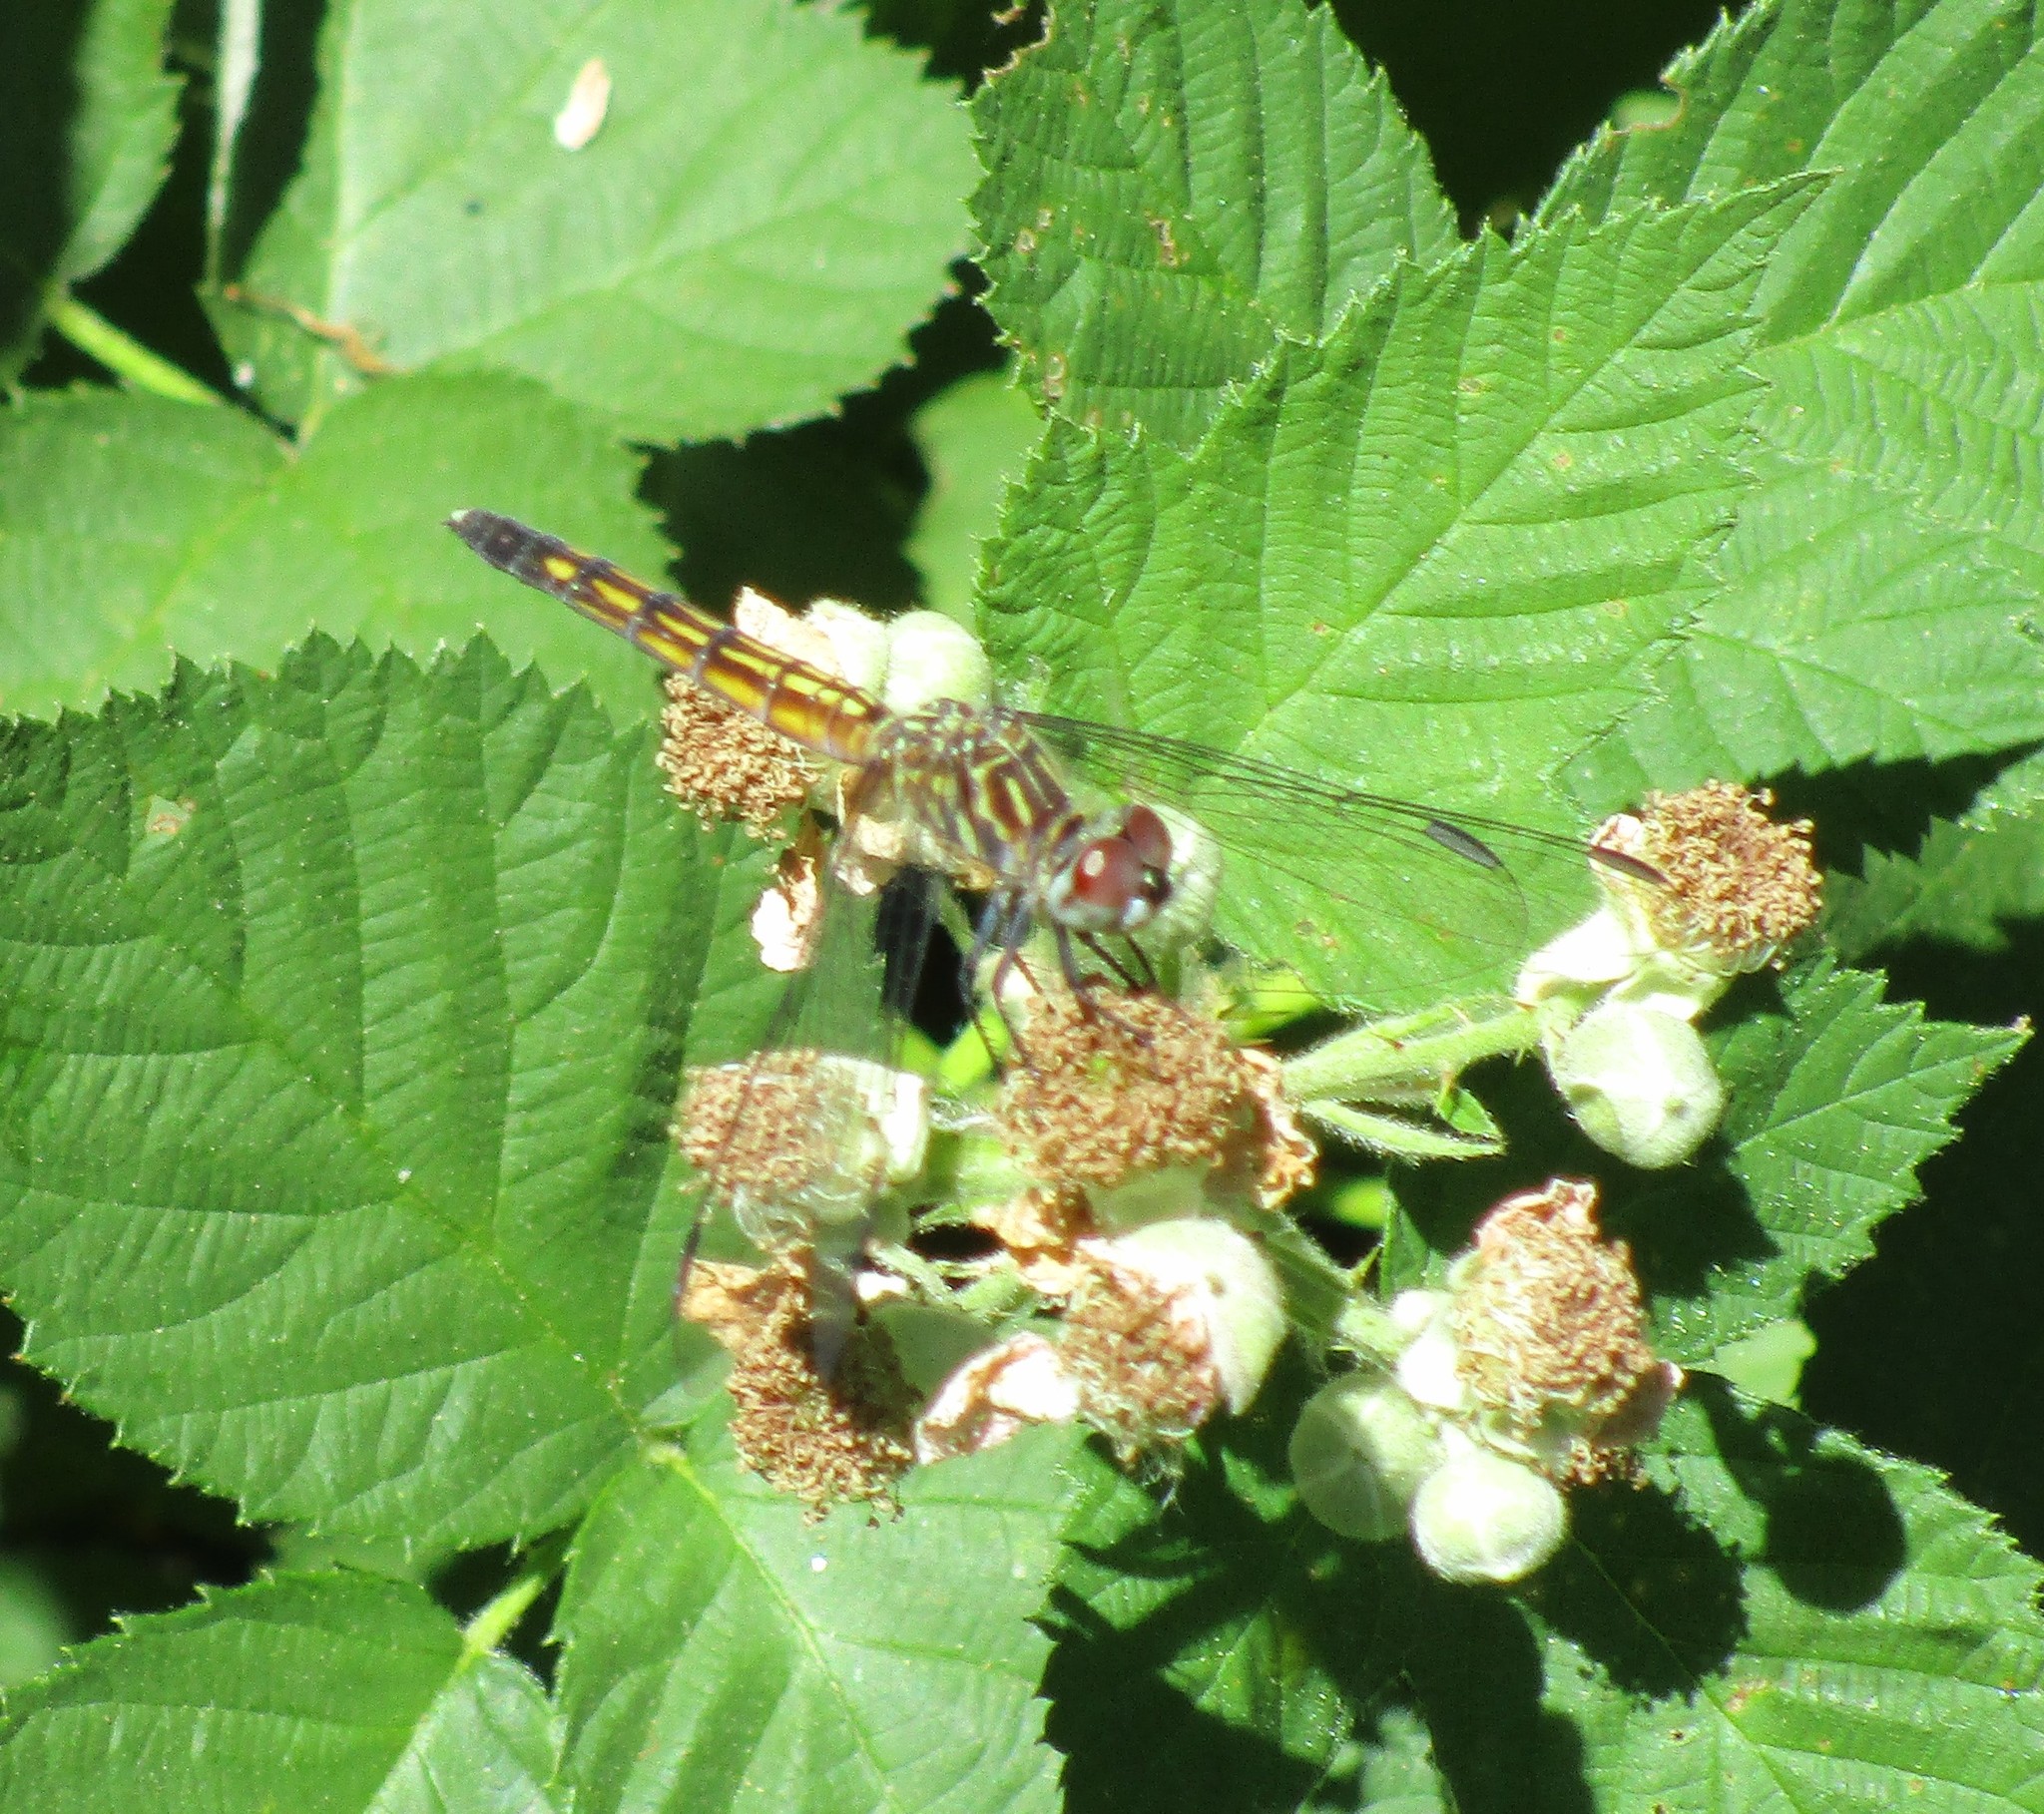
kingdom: Animalia
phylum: Arthropoda
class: Insecta
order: Odonata
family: Libellulidae
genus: Pachydiplax
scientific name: Pachydiplax longipennis
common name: Blue dasher
